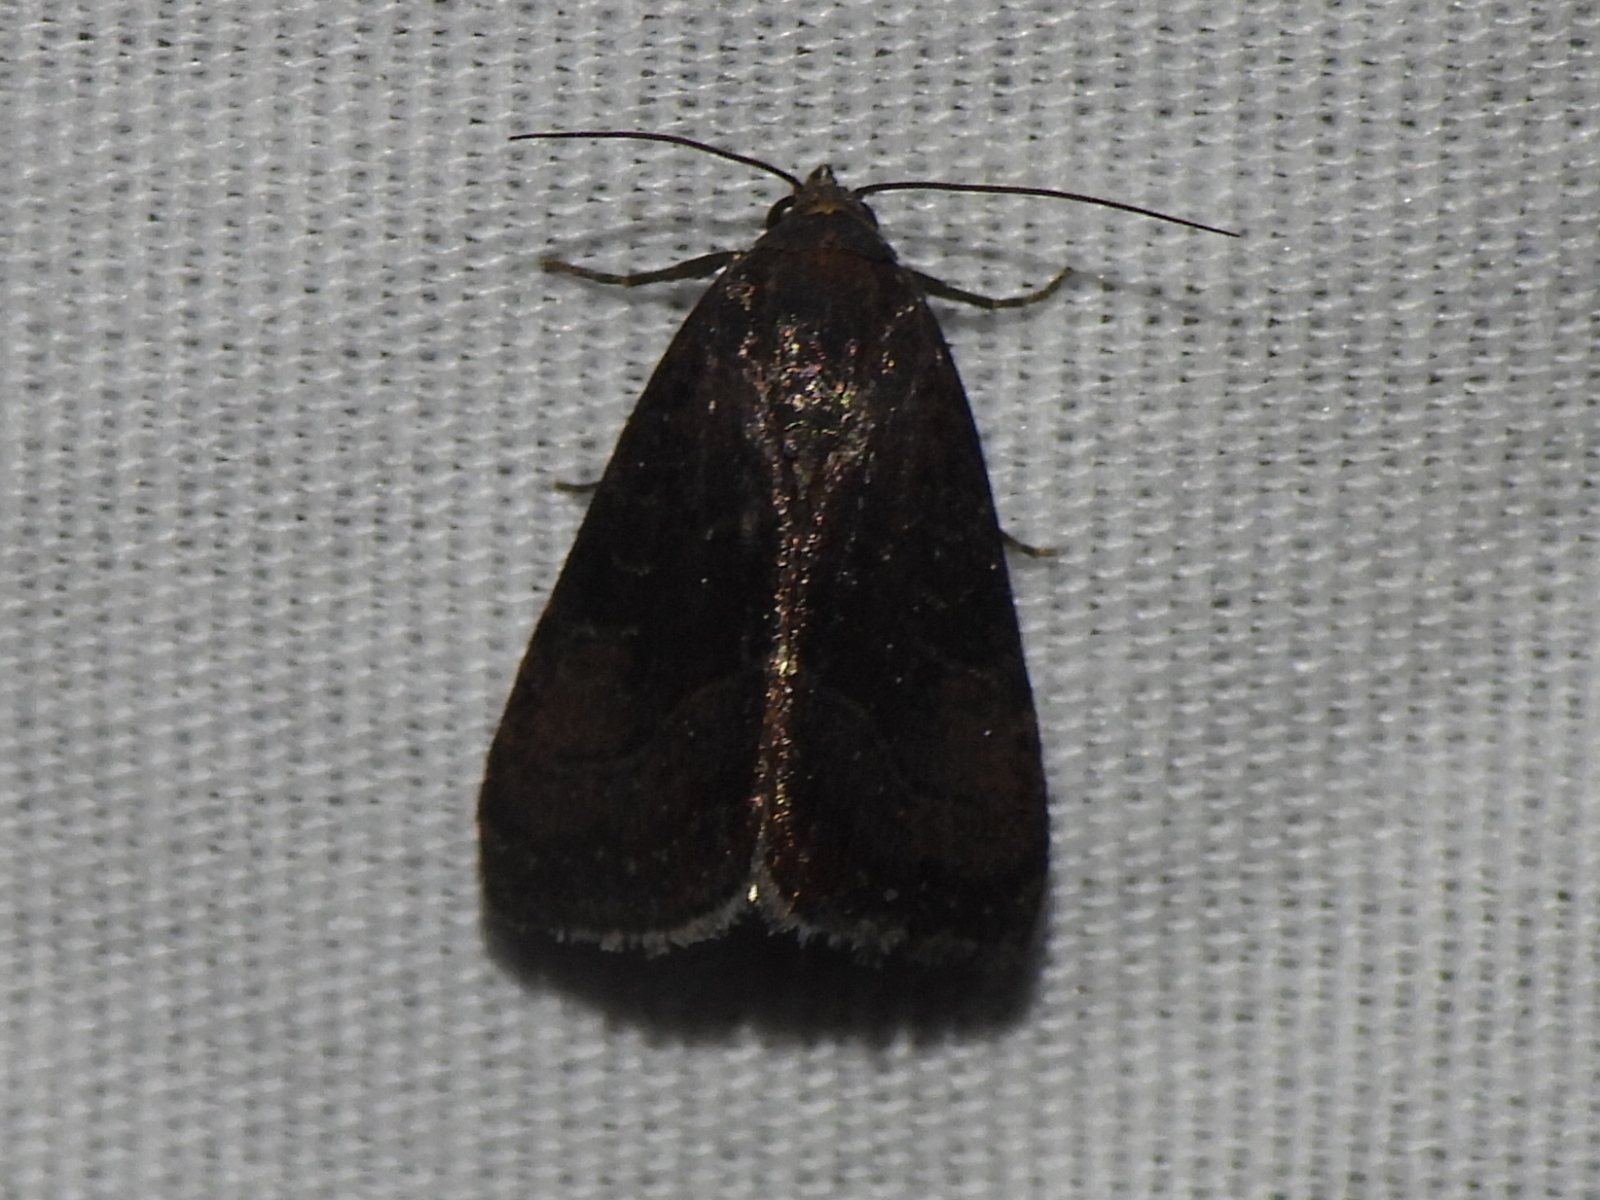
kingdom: Animalia
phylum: Arthropoda
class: Insecta
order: Lepidoptera
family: Noctuidae
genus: Galgula
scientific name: Galgula partita
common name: Wedgeling
